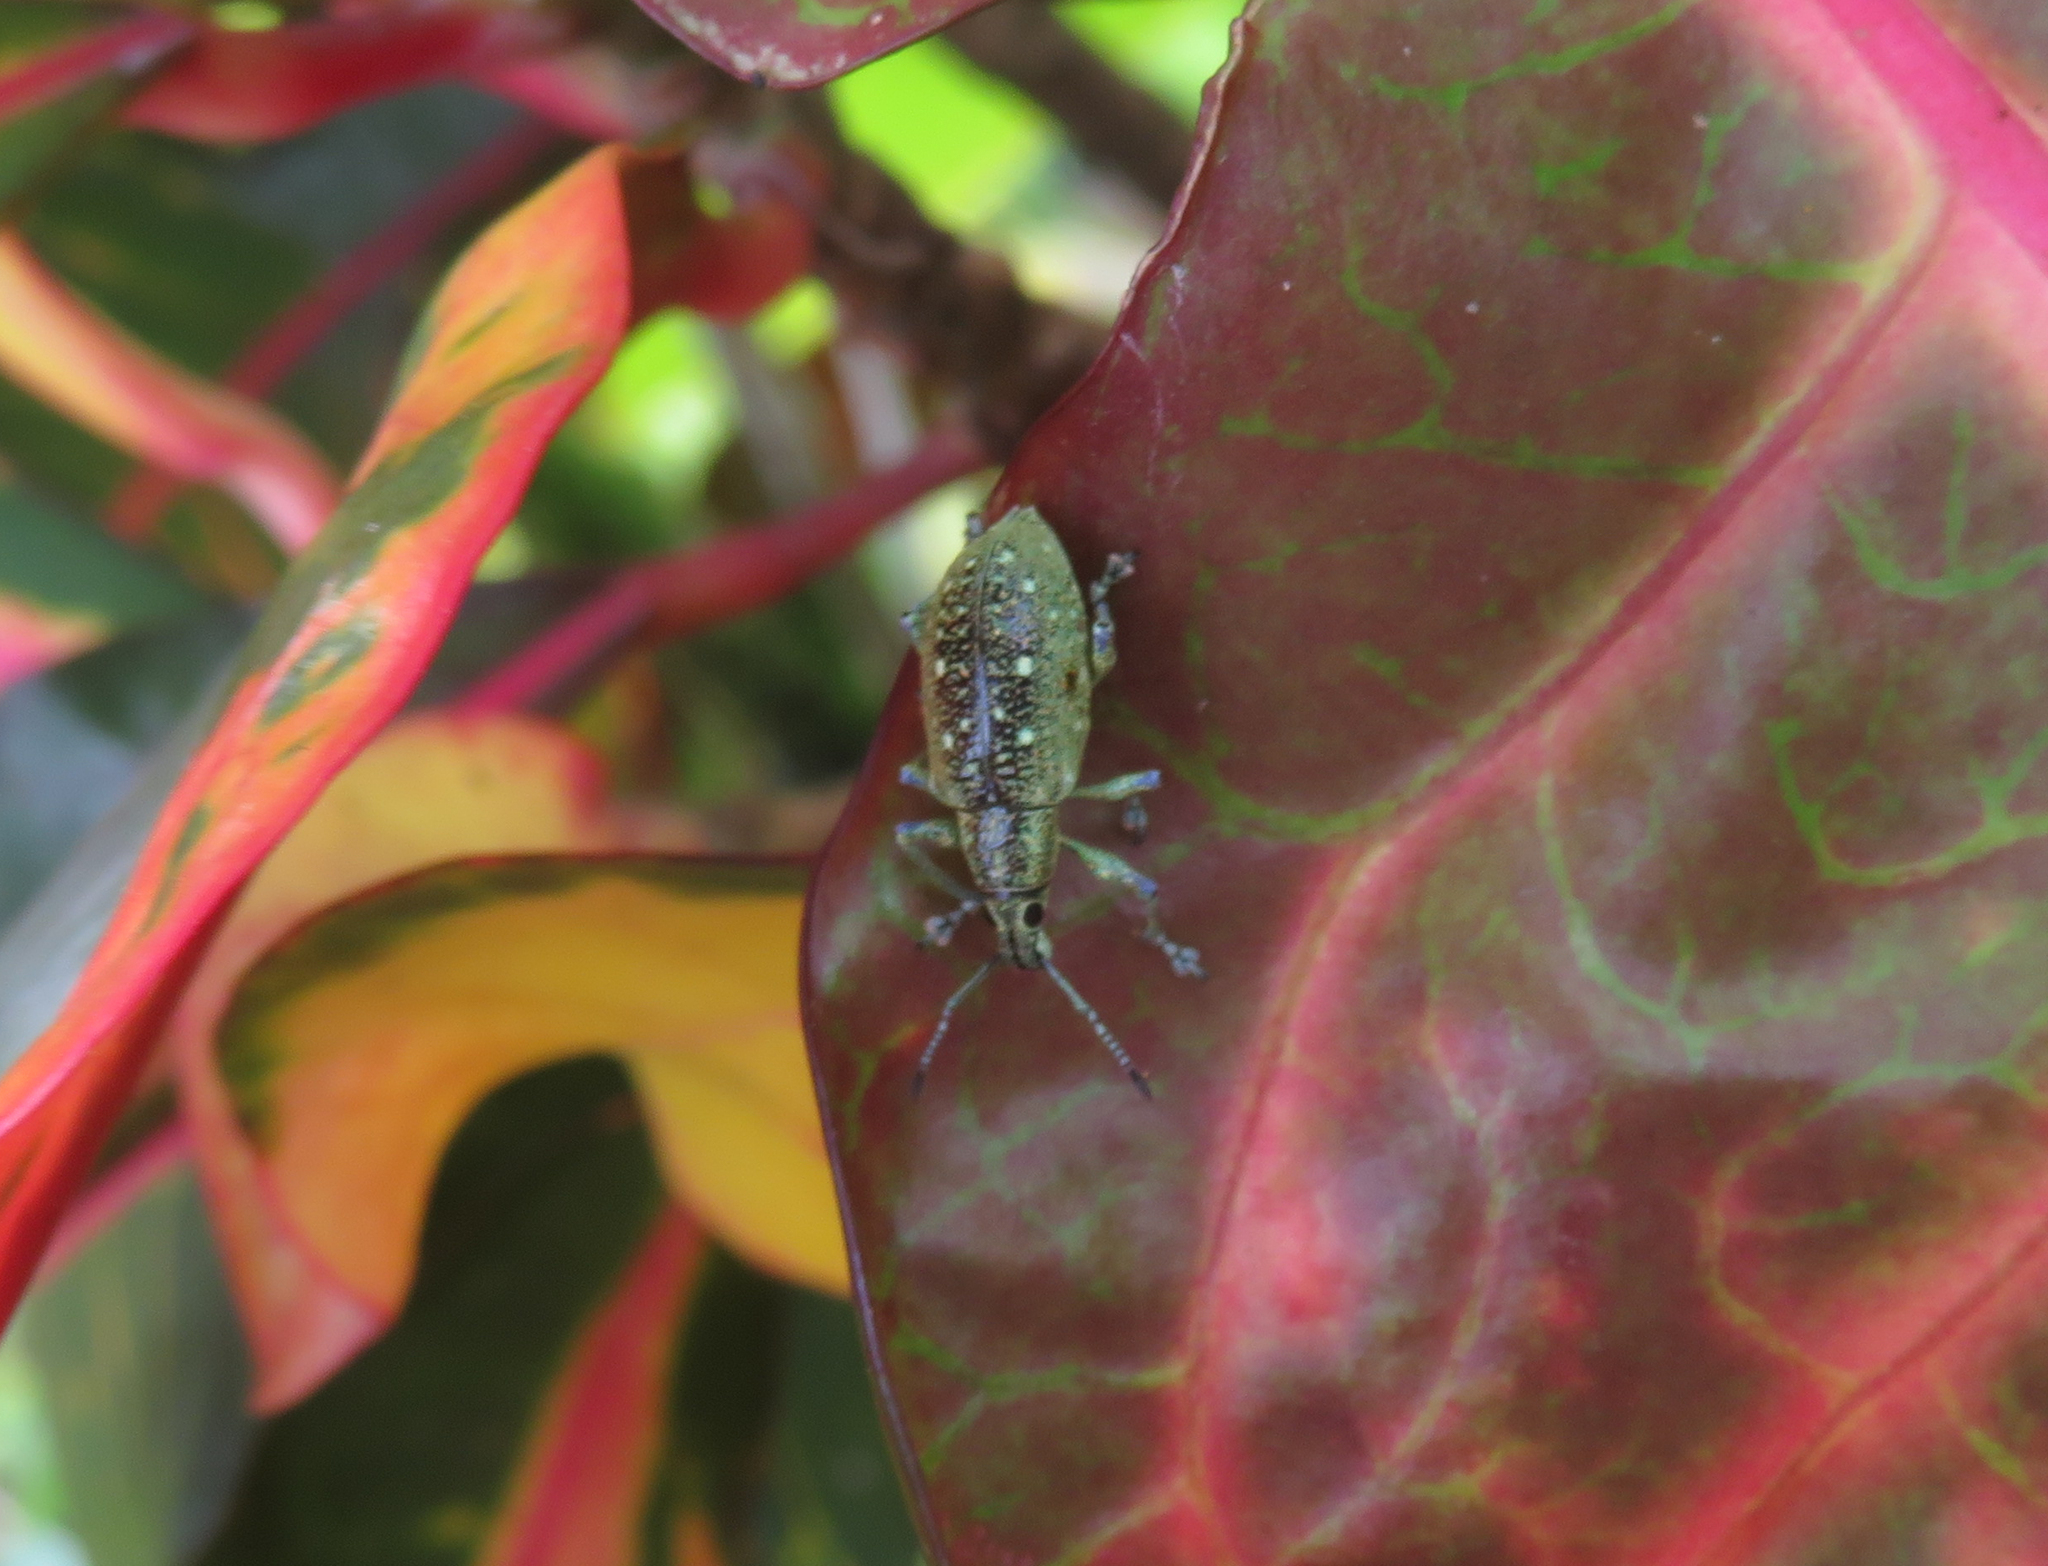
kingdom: Animalia
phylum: Arthropoda
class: Insecta
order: Coleoptera
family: Curculionidae
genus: Exophthalmus
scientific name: Exophthalmus jekelianus
